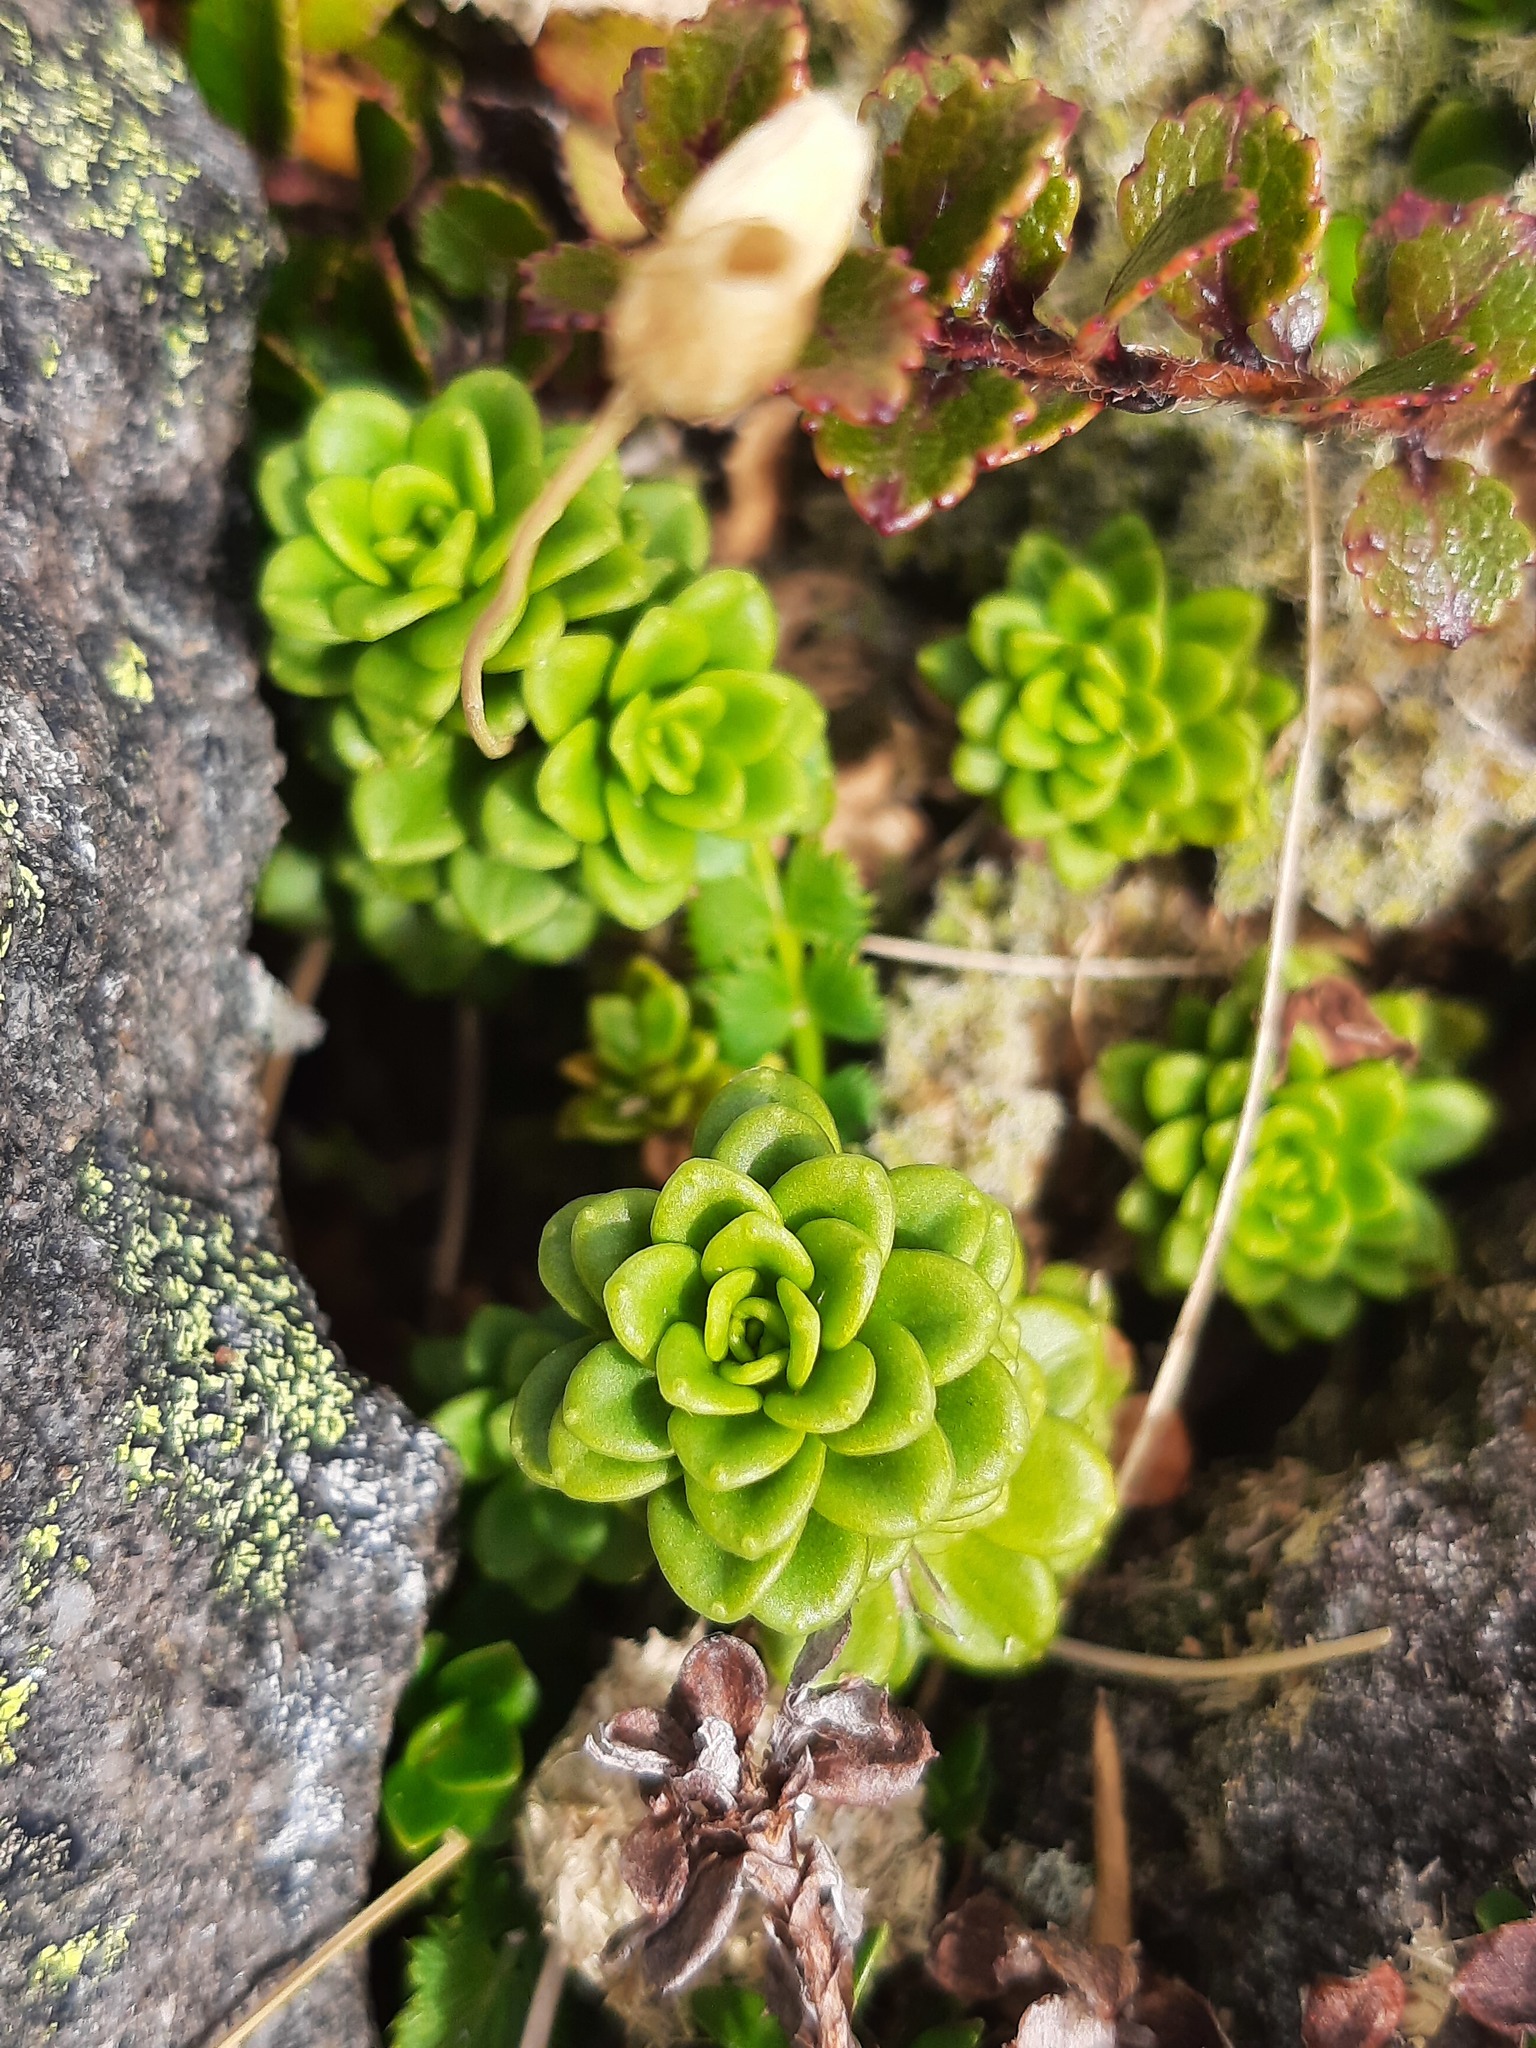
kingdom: Plantae
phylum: Tracheophyta
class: Magnoliopsida
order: Asterales
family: Stylidiaceae
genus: Forstera
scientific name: Forstera tenella
